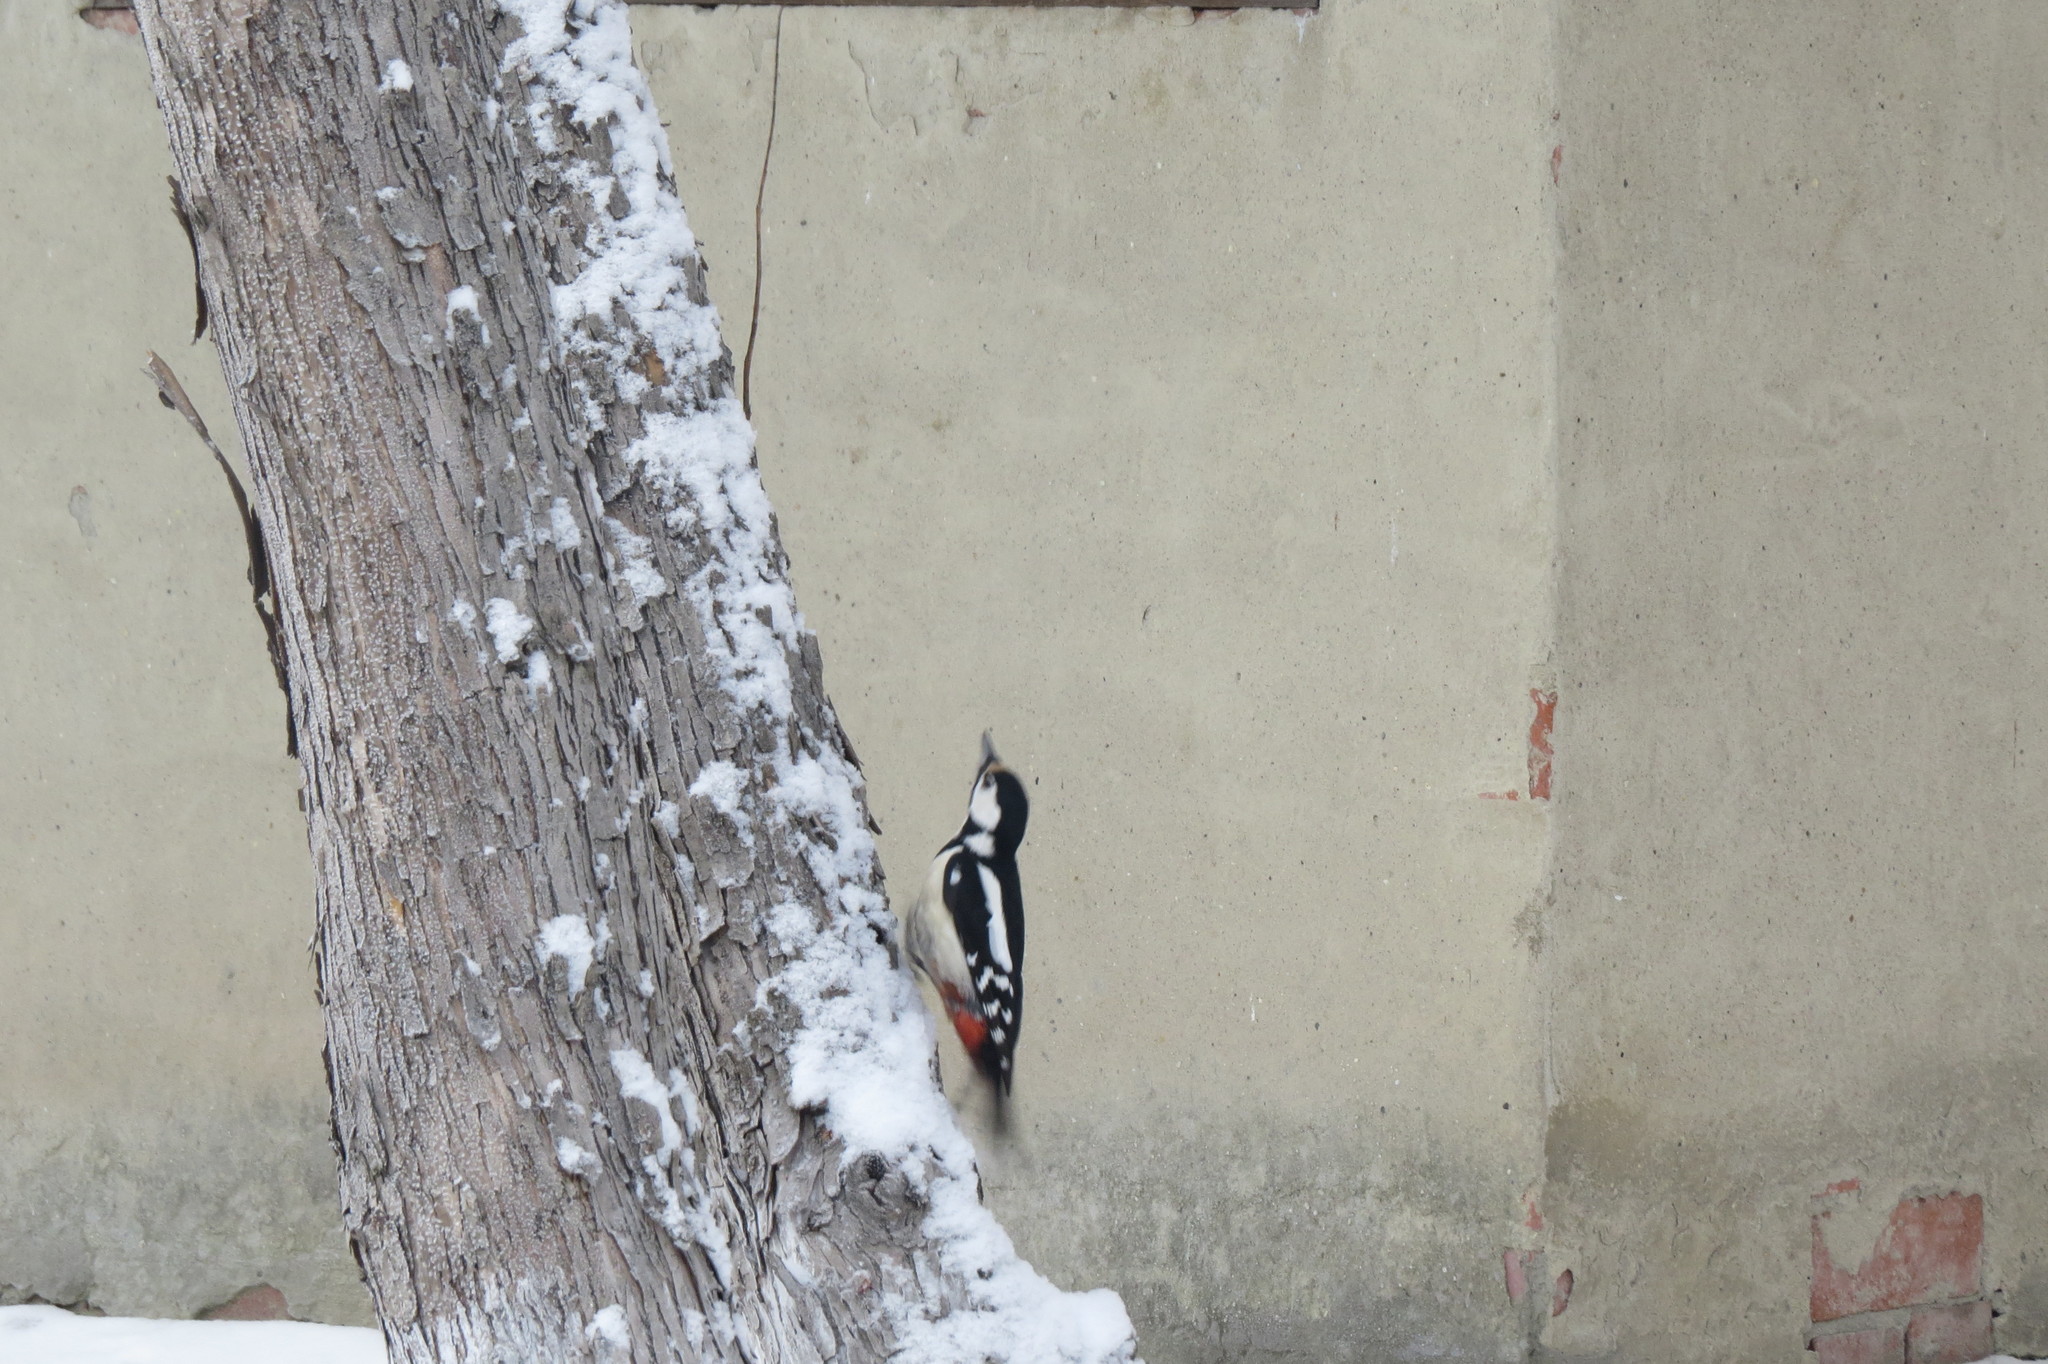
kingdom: Animalia
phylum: Chordata
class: Aves
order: Piciformes
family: Picidae
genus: Dendrocopos
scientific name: Dendrocopos major
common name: Great spotted woodpecker
